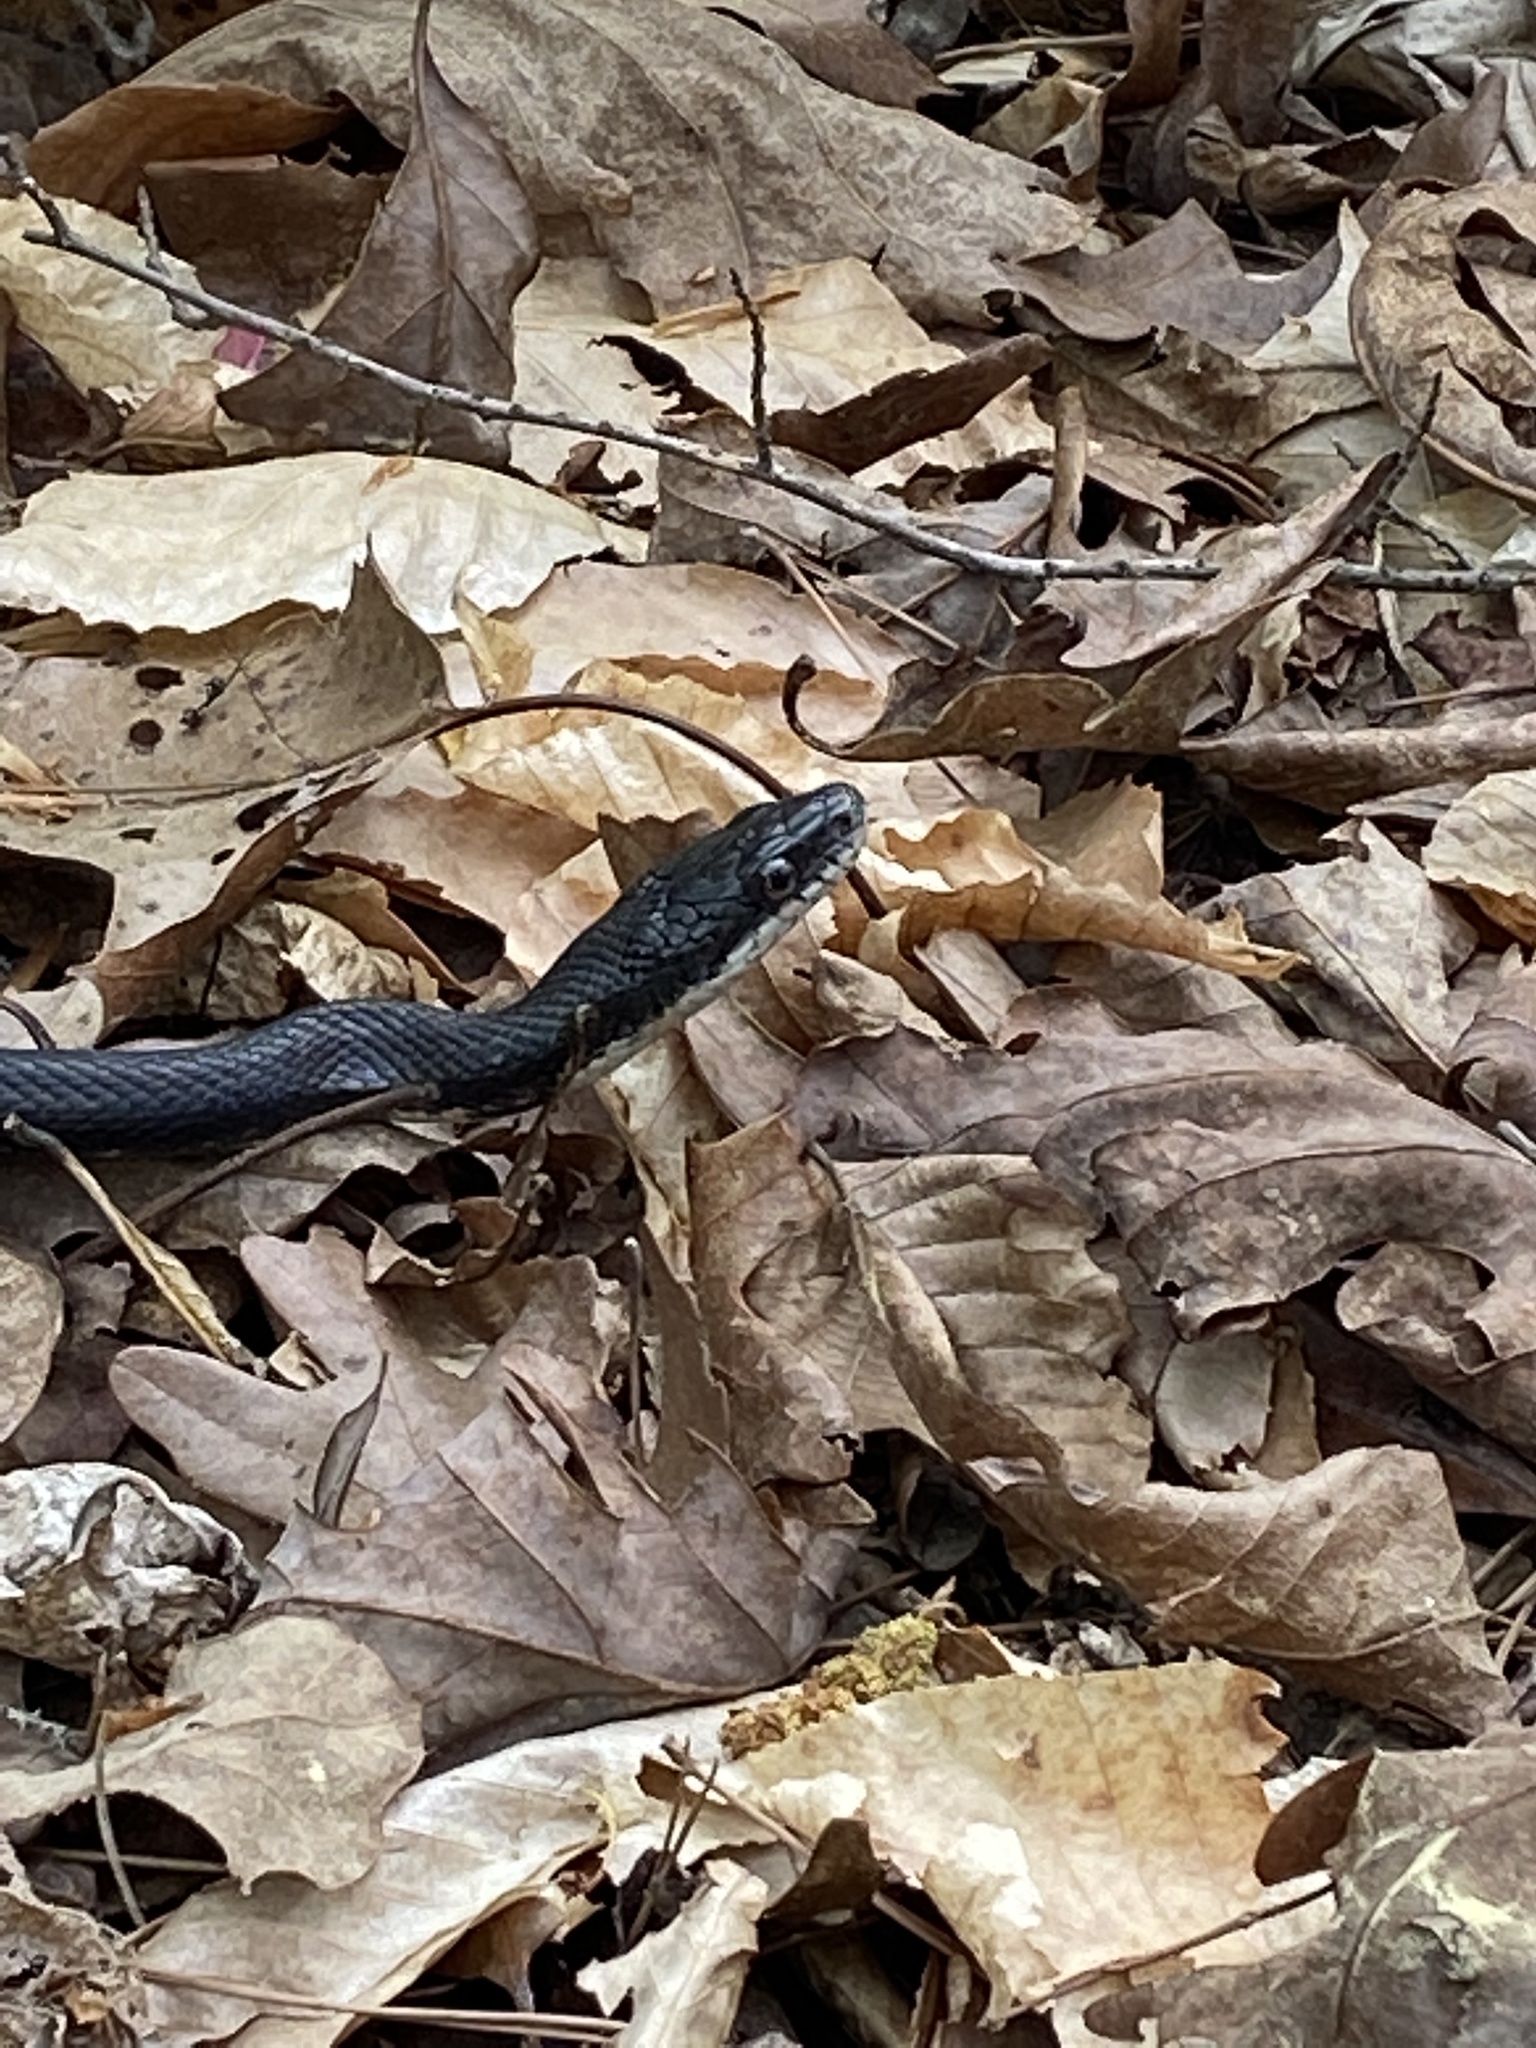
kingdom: Animalia
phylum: Chordata
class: Squamata
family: Colubridae
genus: Pantherophis
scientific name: Pantherophis alleghaniensis
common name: Eastern rat snake
